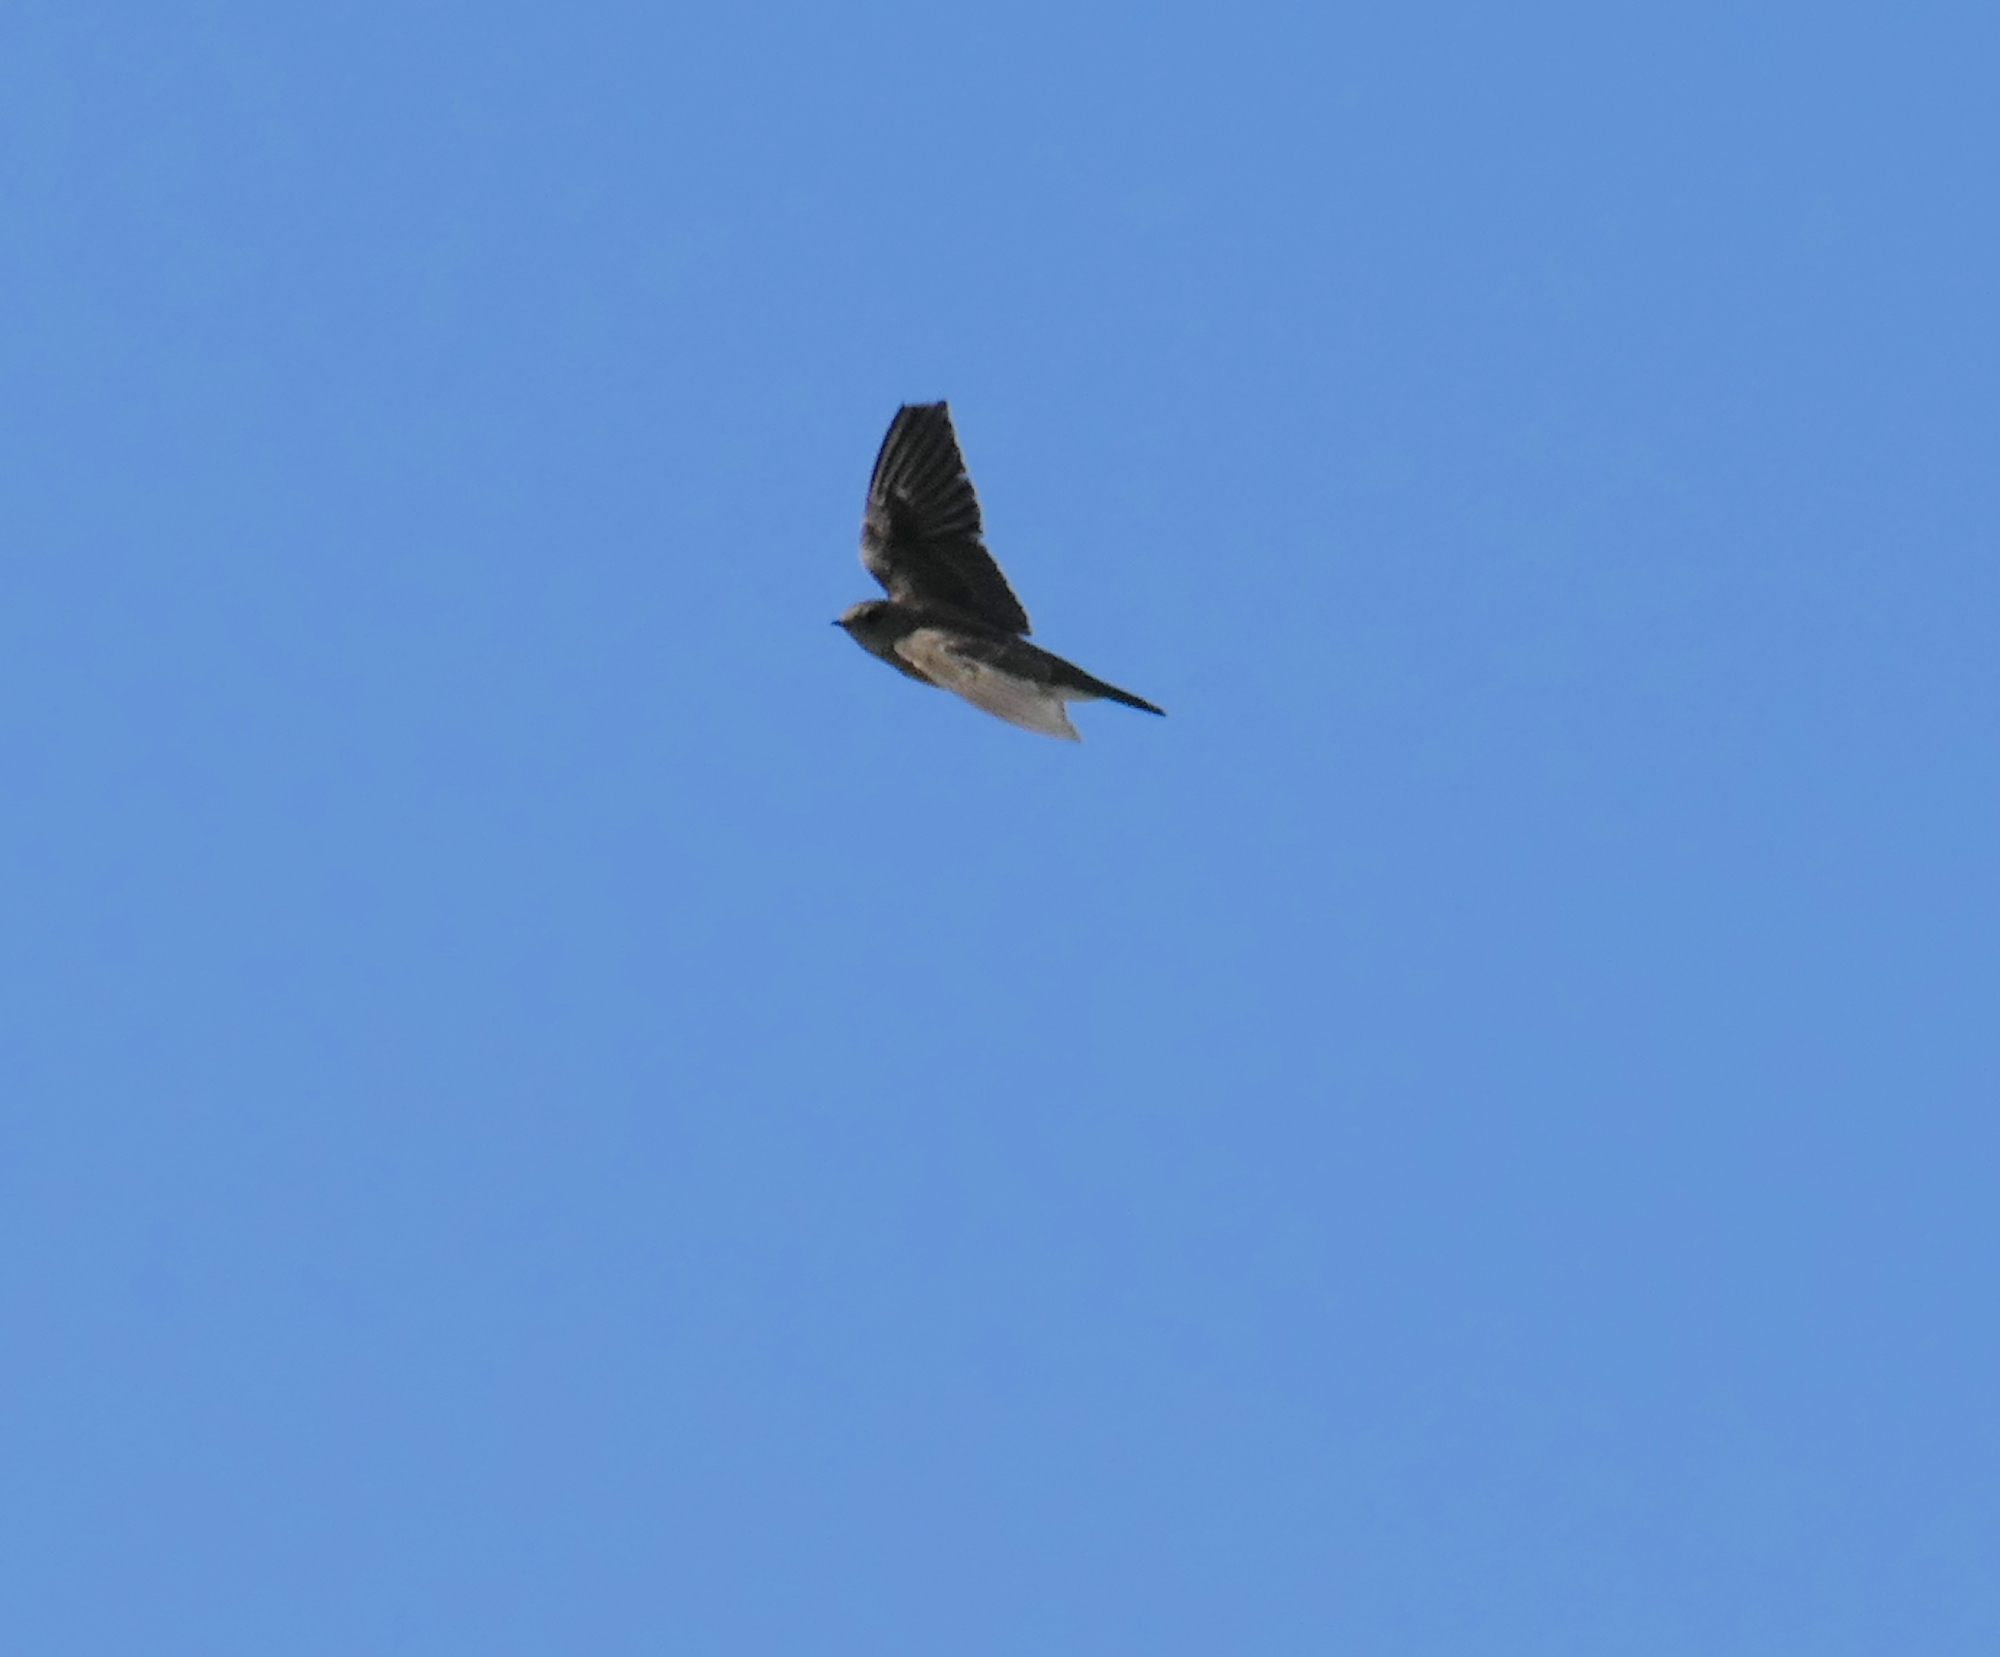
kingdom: Animalia
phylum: Chordata
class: Aves
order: Passeriformes
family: Hirundinidae
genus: Stelgidopteryx
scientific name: Stelgidopteryx serripennis
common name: Northern rough-winged swallow
